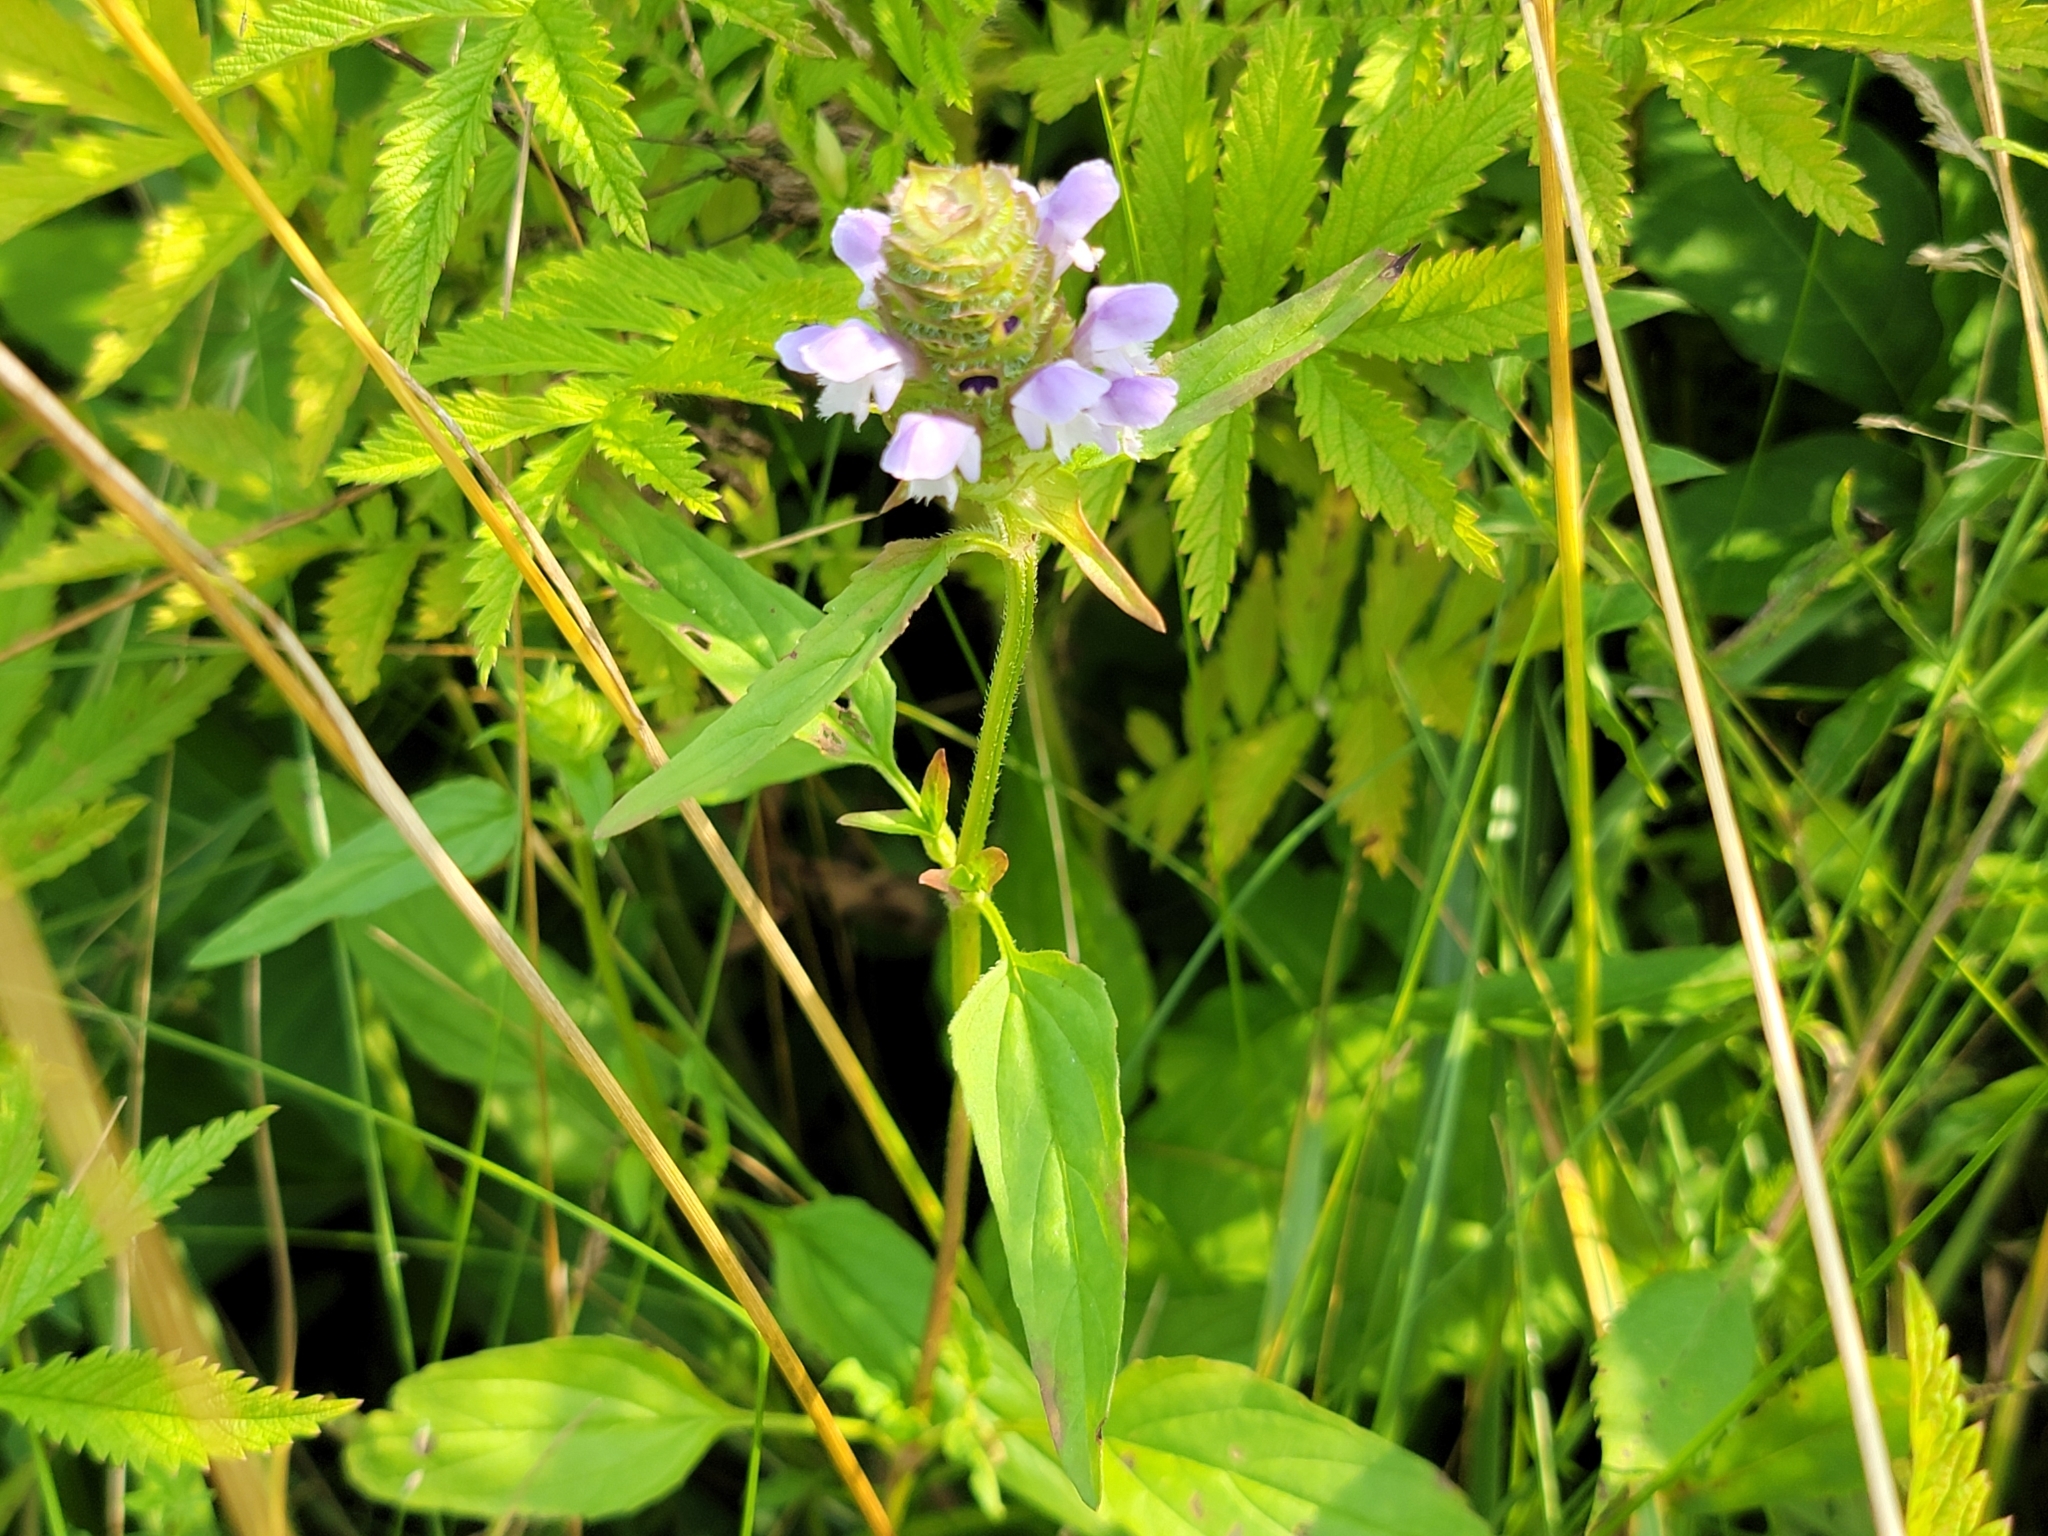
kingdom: Plantae
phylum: Tracheophyta
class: Magnoliopsida
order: Lamiales
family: Lamiaceae
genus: Prunella
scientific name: Prunella vulgaris
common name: Heal-all
